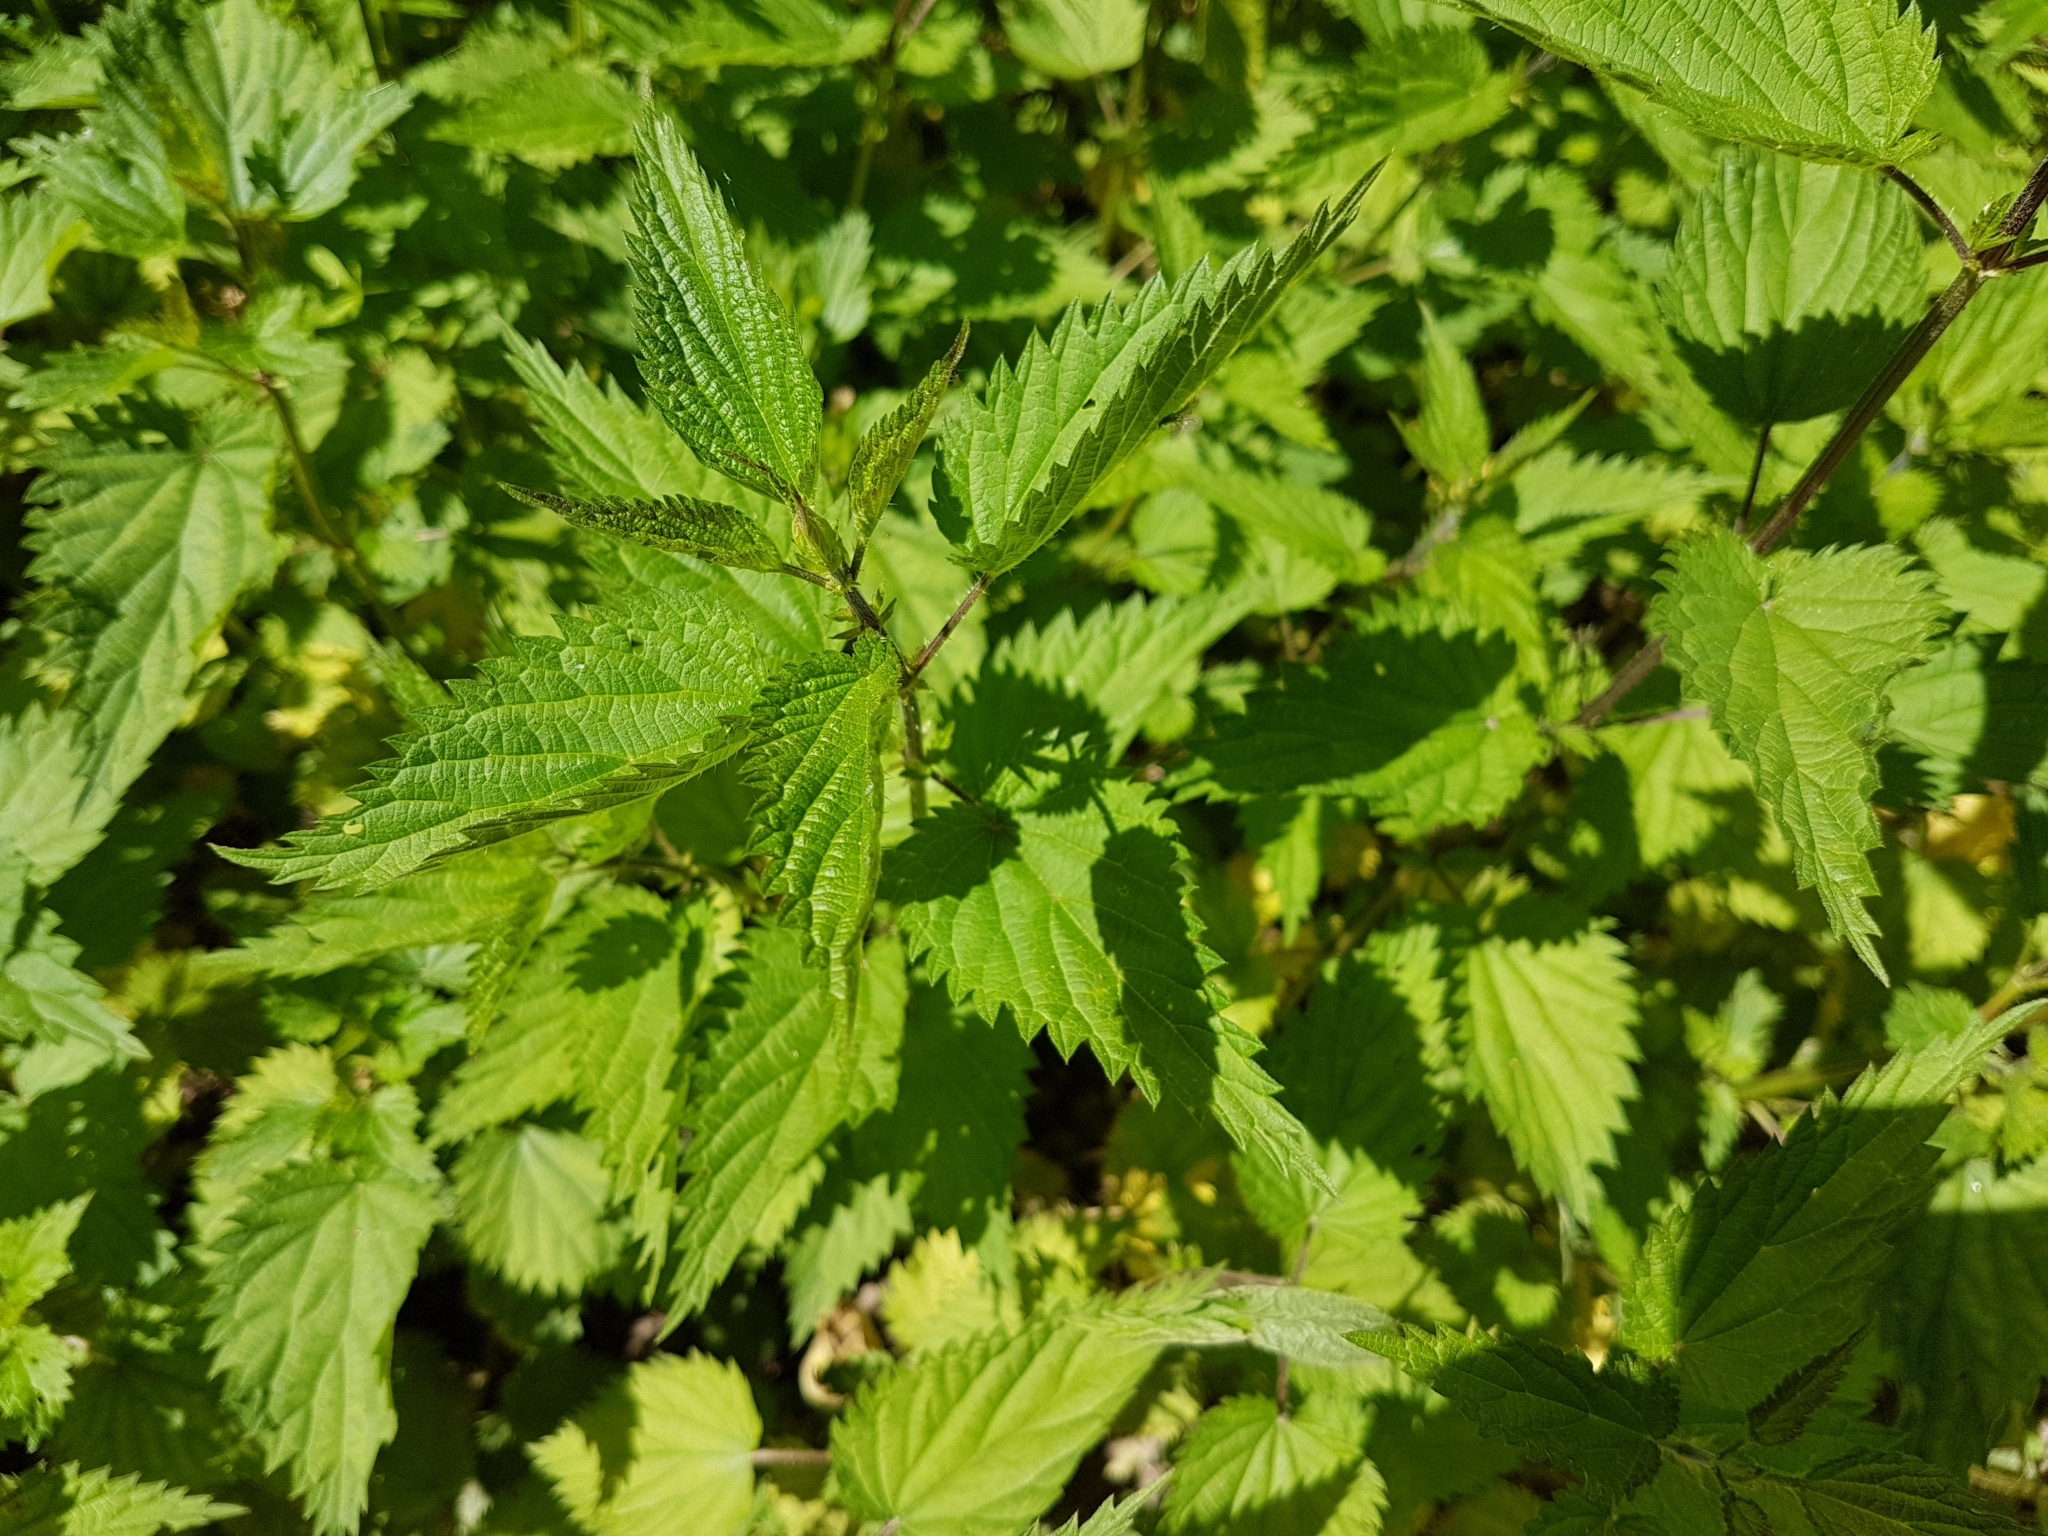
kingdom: Plantae
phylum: Tracheophyta
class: Magnoliopsida
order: Rosales
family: Urticaceae
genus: Urtica
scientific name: Urtica dioica
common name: Common nettle
